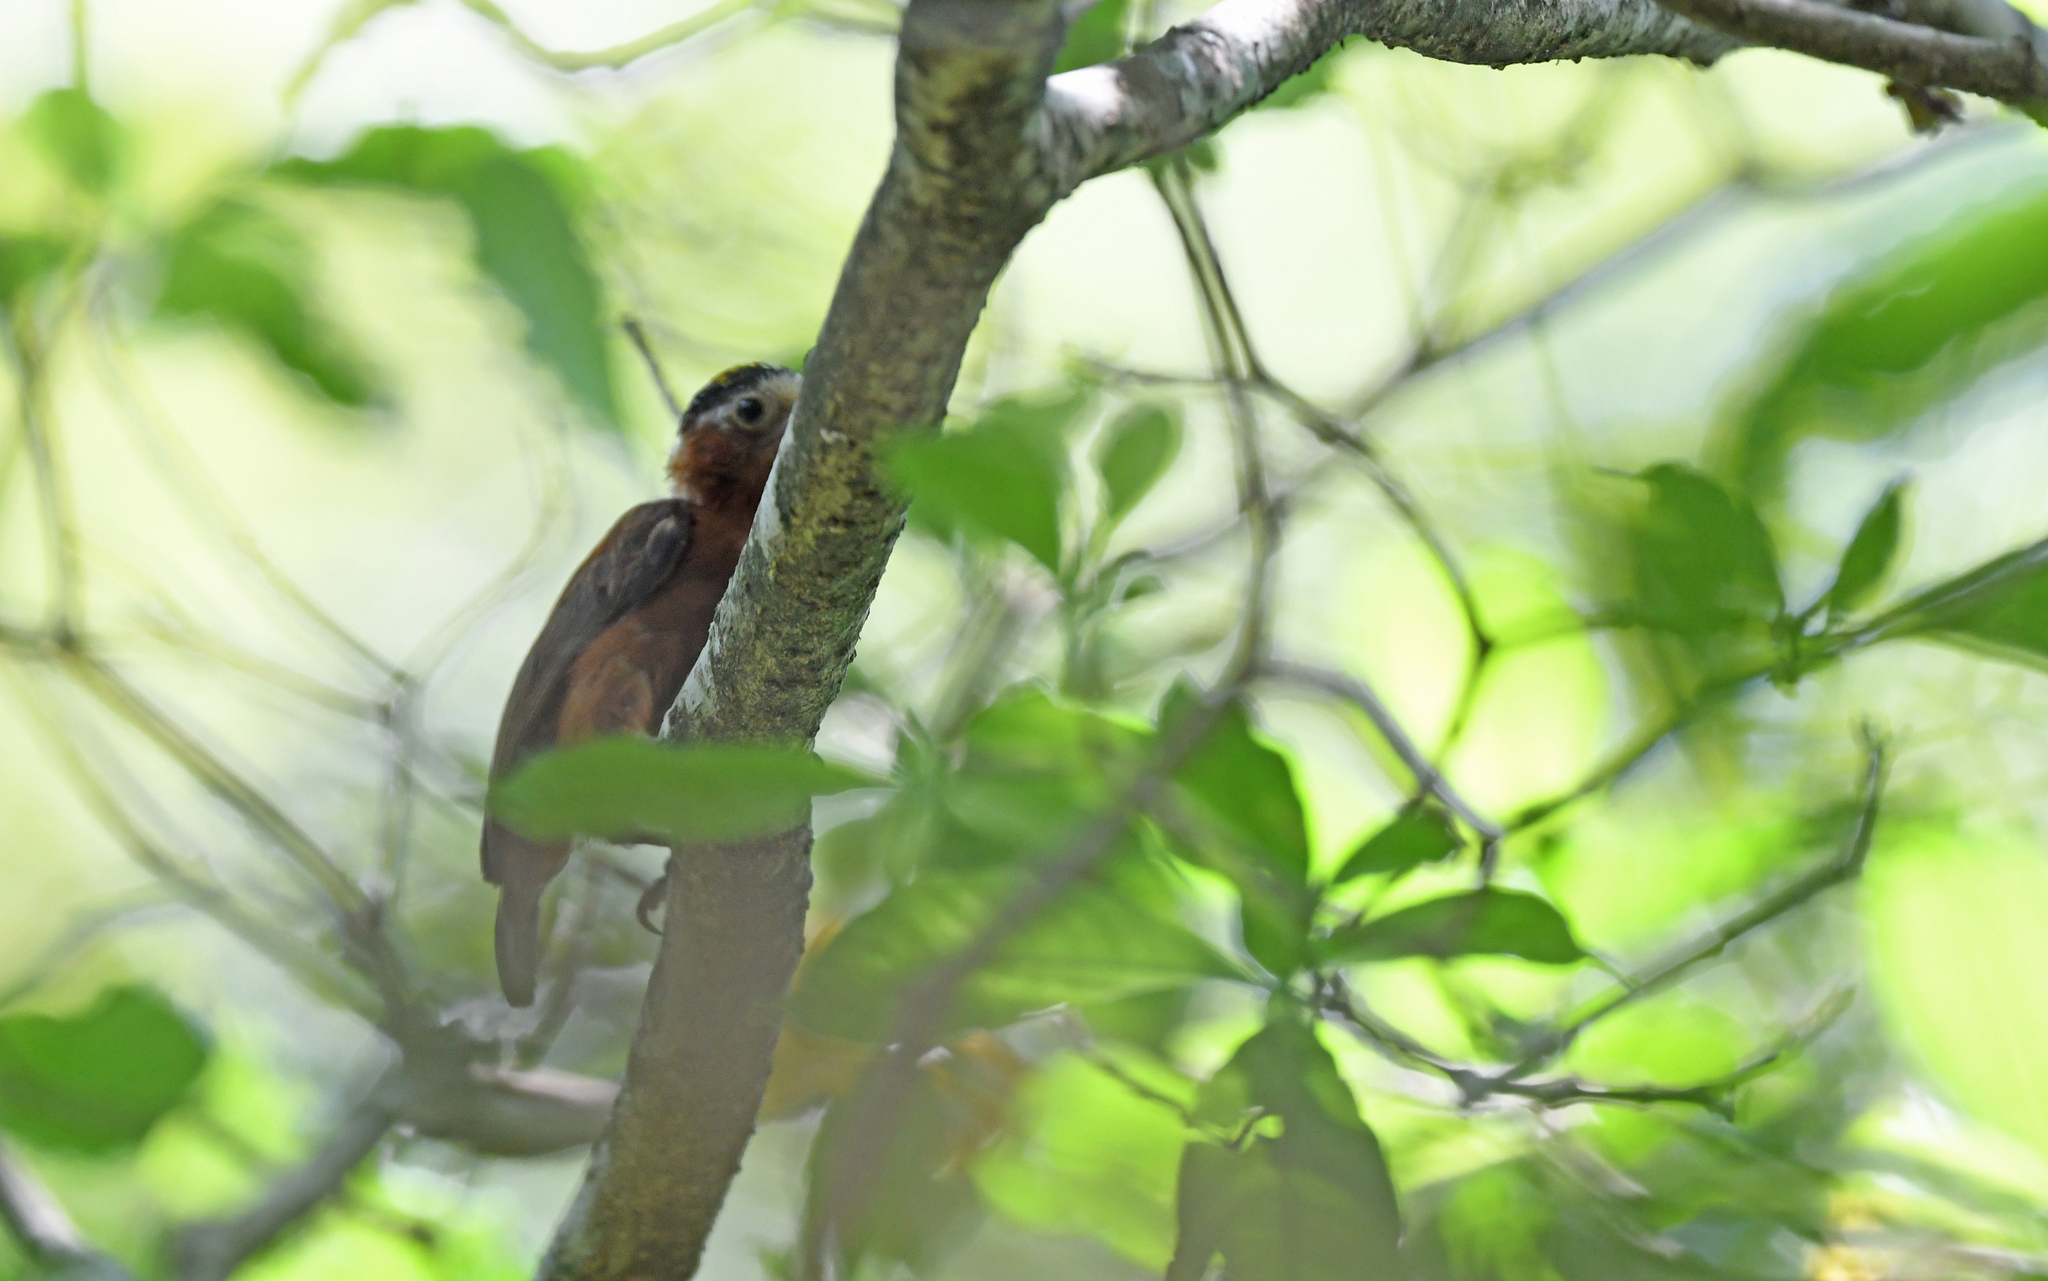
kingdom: Animalia
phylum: Chordata
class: Aves
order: Piciformes
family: Picidae
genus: Picumnus
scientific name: Picumnus cinnamomeus
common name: Chestnut piculet
